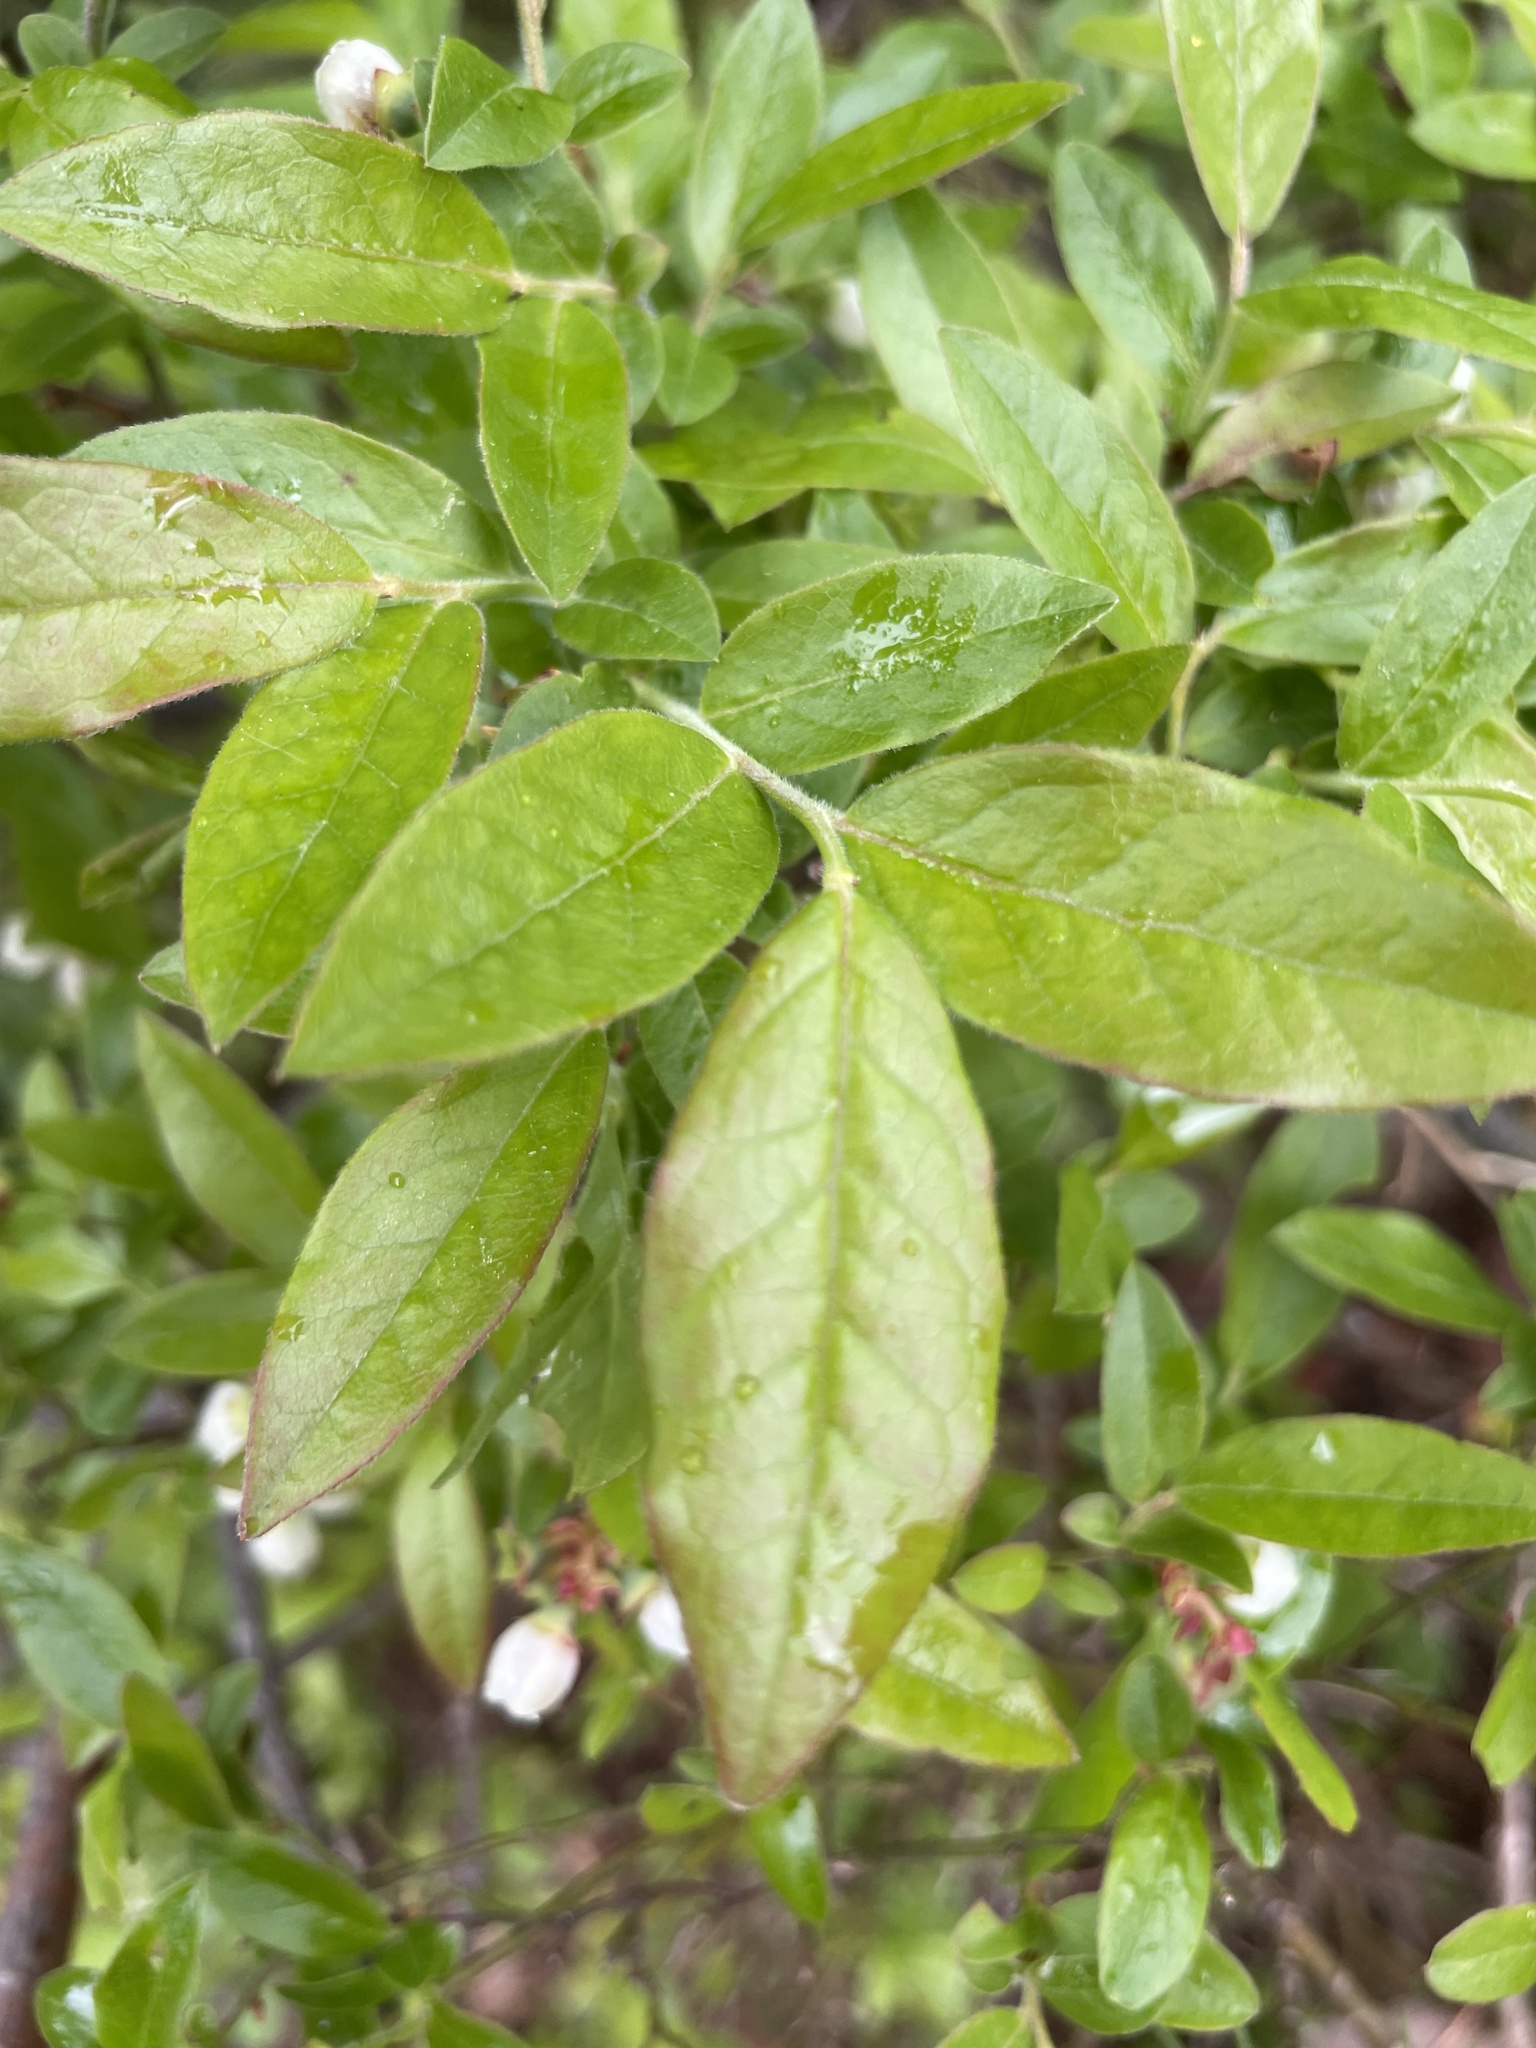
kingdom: Plantae
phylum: Tracheophyta
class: Magnoliopsida
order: Ericales
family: Ericaceae
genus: Vaccinium
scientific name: Vaccinium myrtilloides
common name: Canada blueberry
